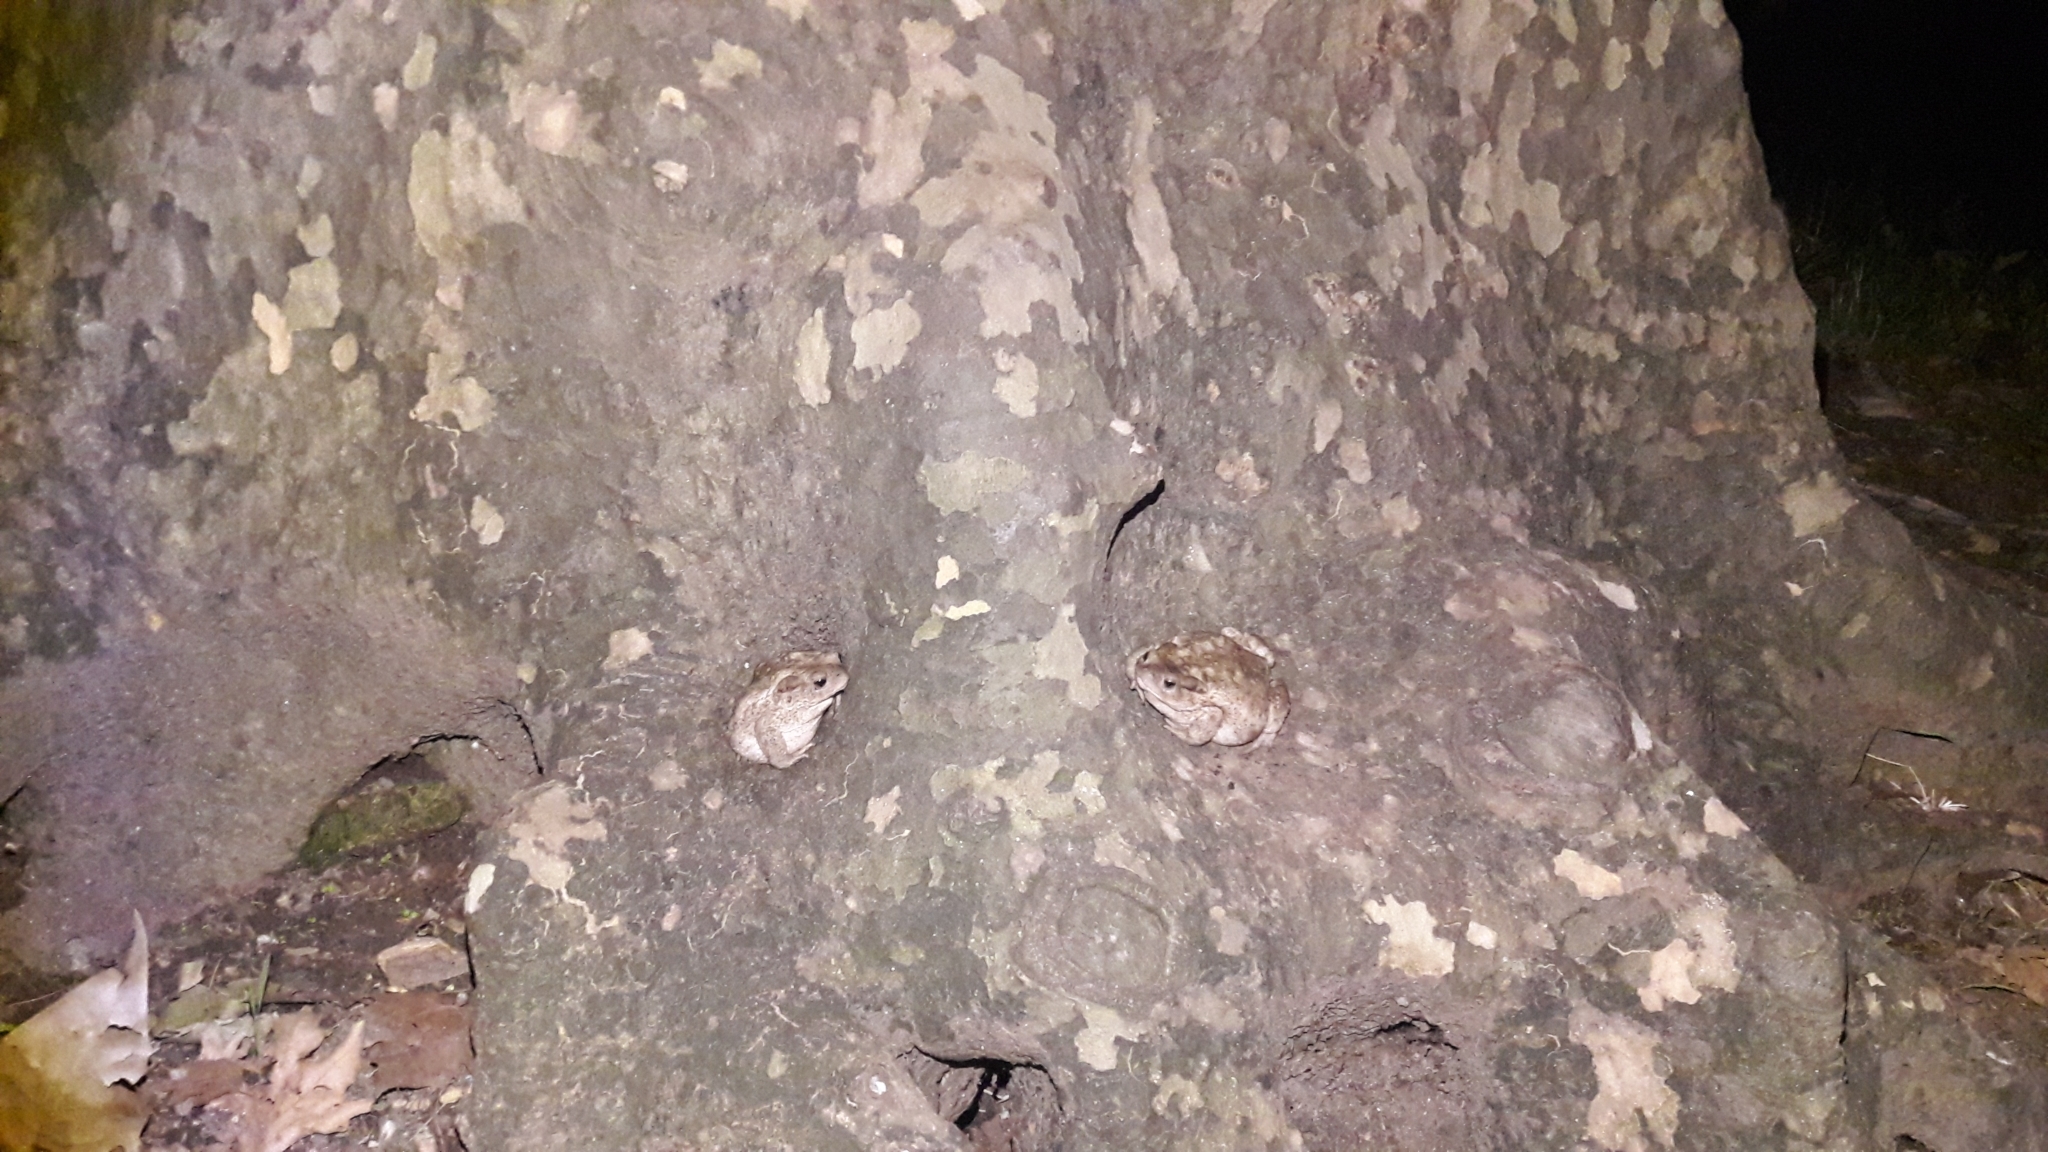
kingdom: Animalia
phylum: Chordata
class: Amphibia
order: Anura
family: Bufonidae
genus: Bufo
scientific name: Bufo bufo
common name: Common toad
